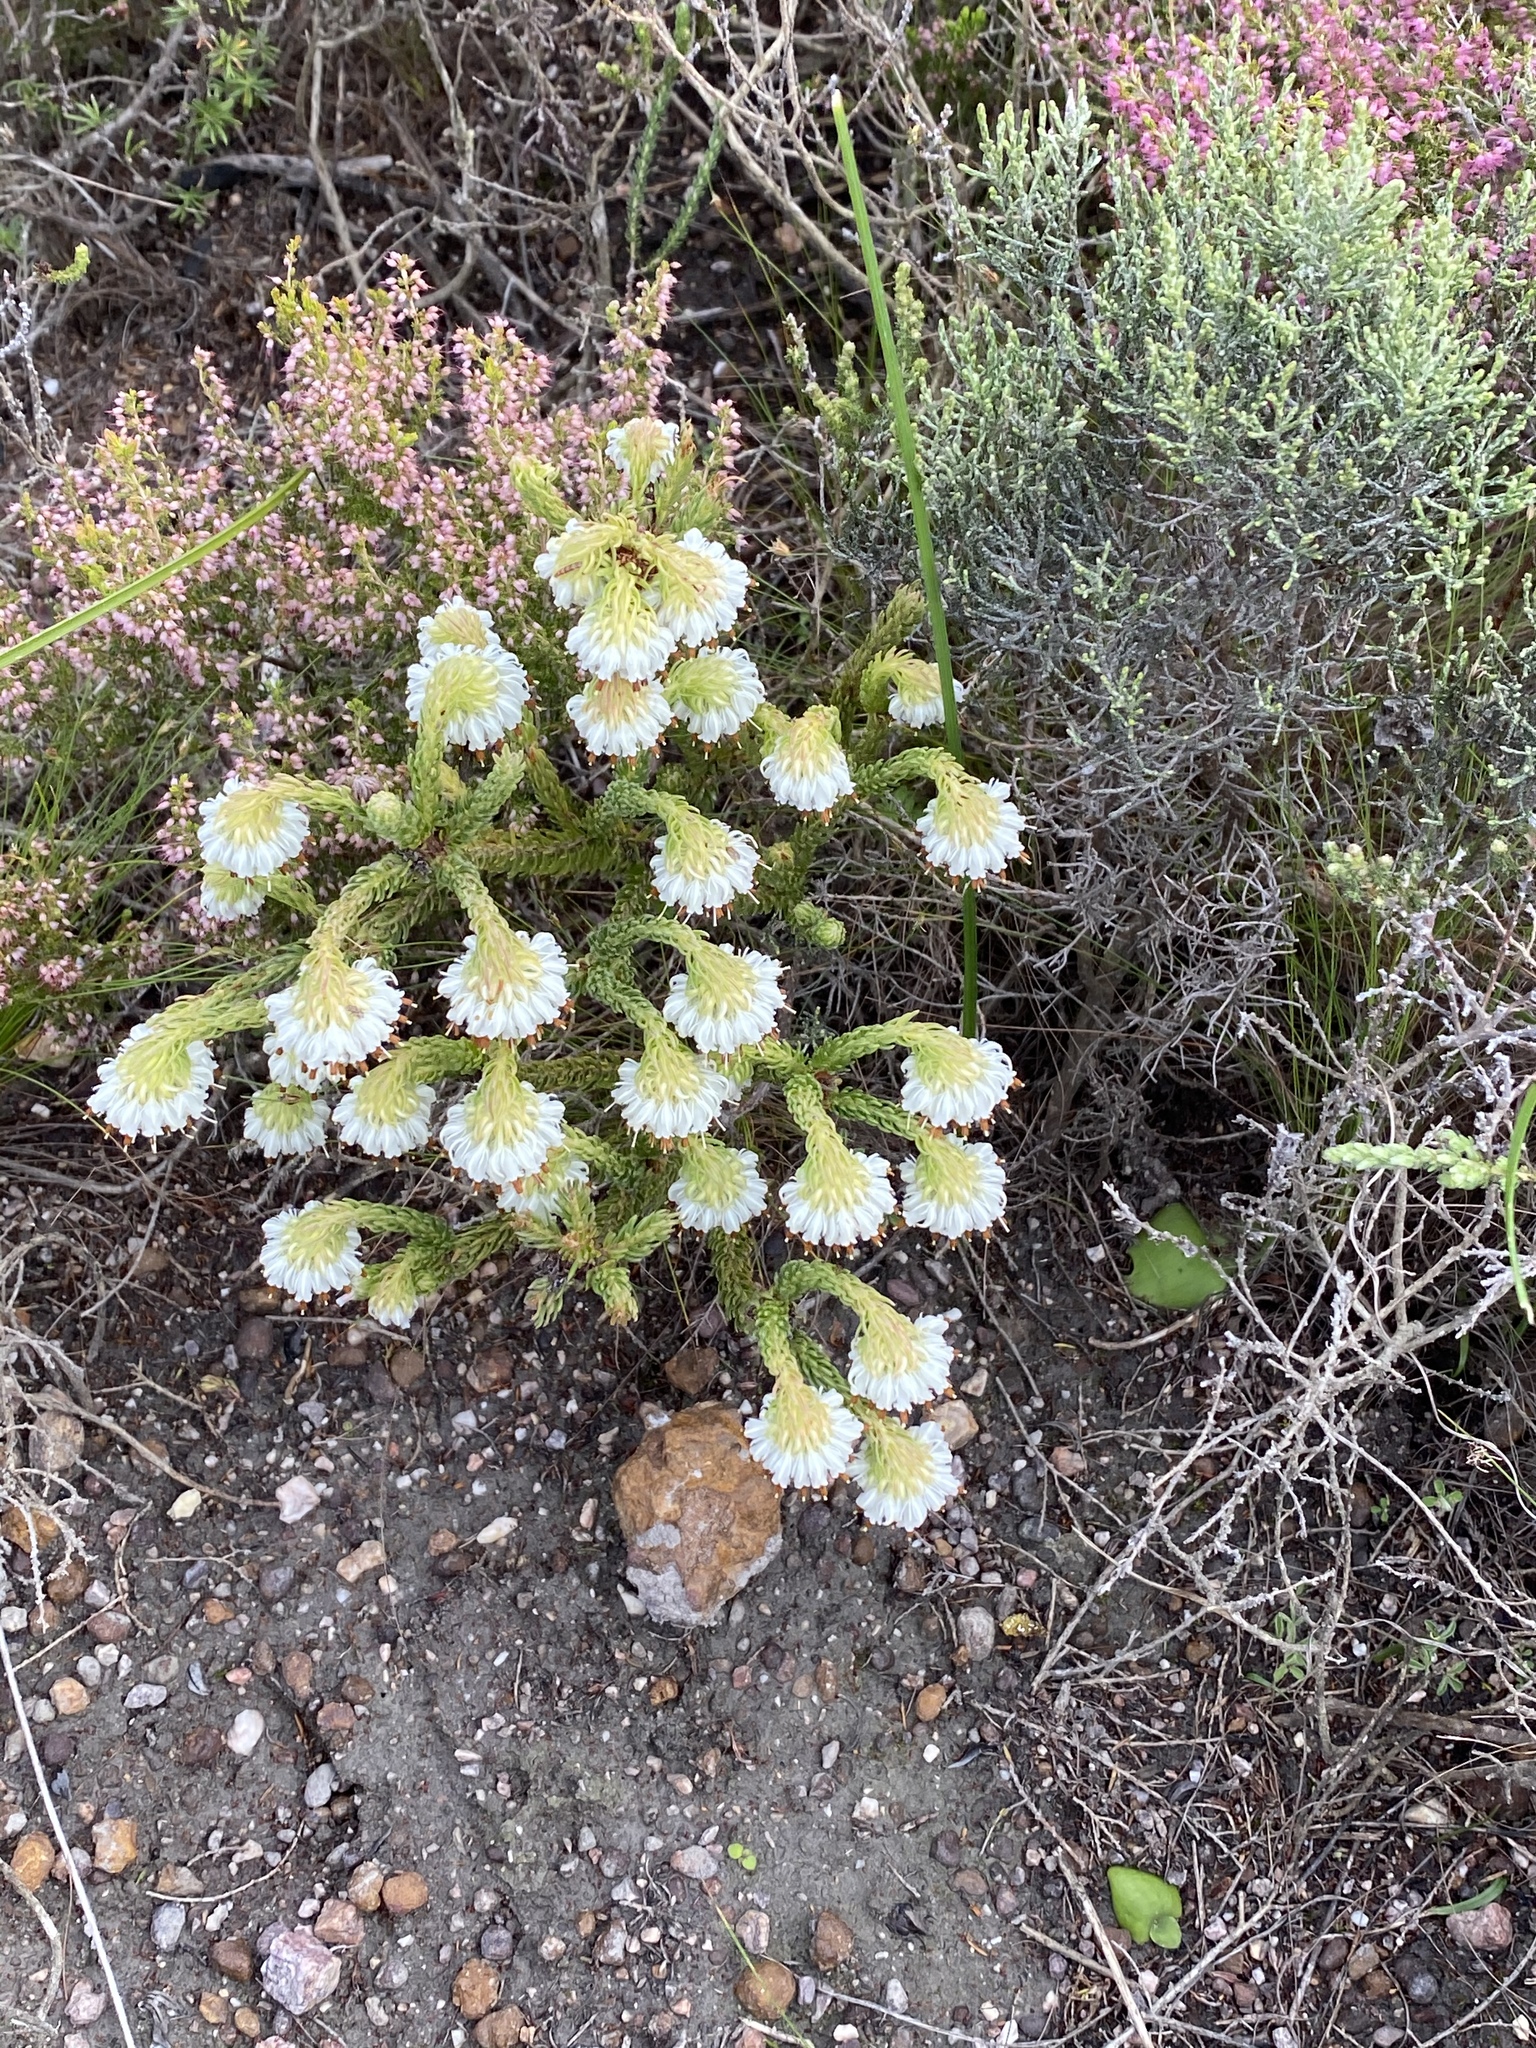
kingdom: Plantae
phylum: Tracheophyta
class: Magnoliopsida
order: Ericales
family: Ericaceae
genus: Erica
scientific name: Erica bruniifolia
